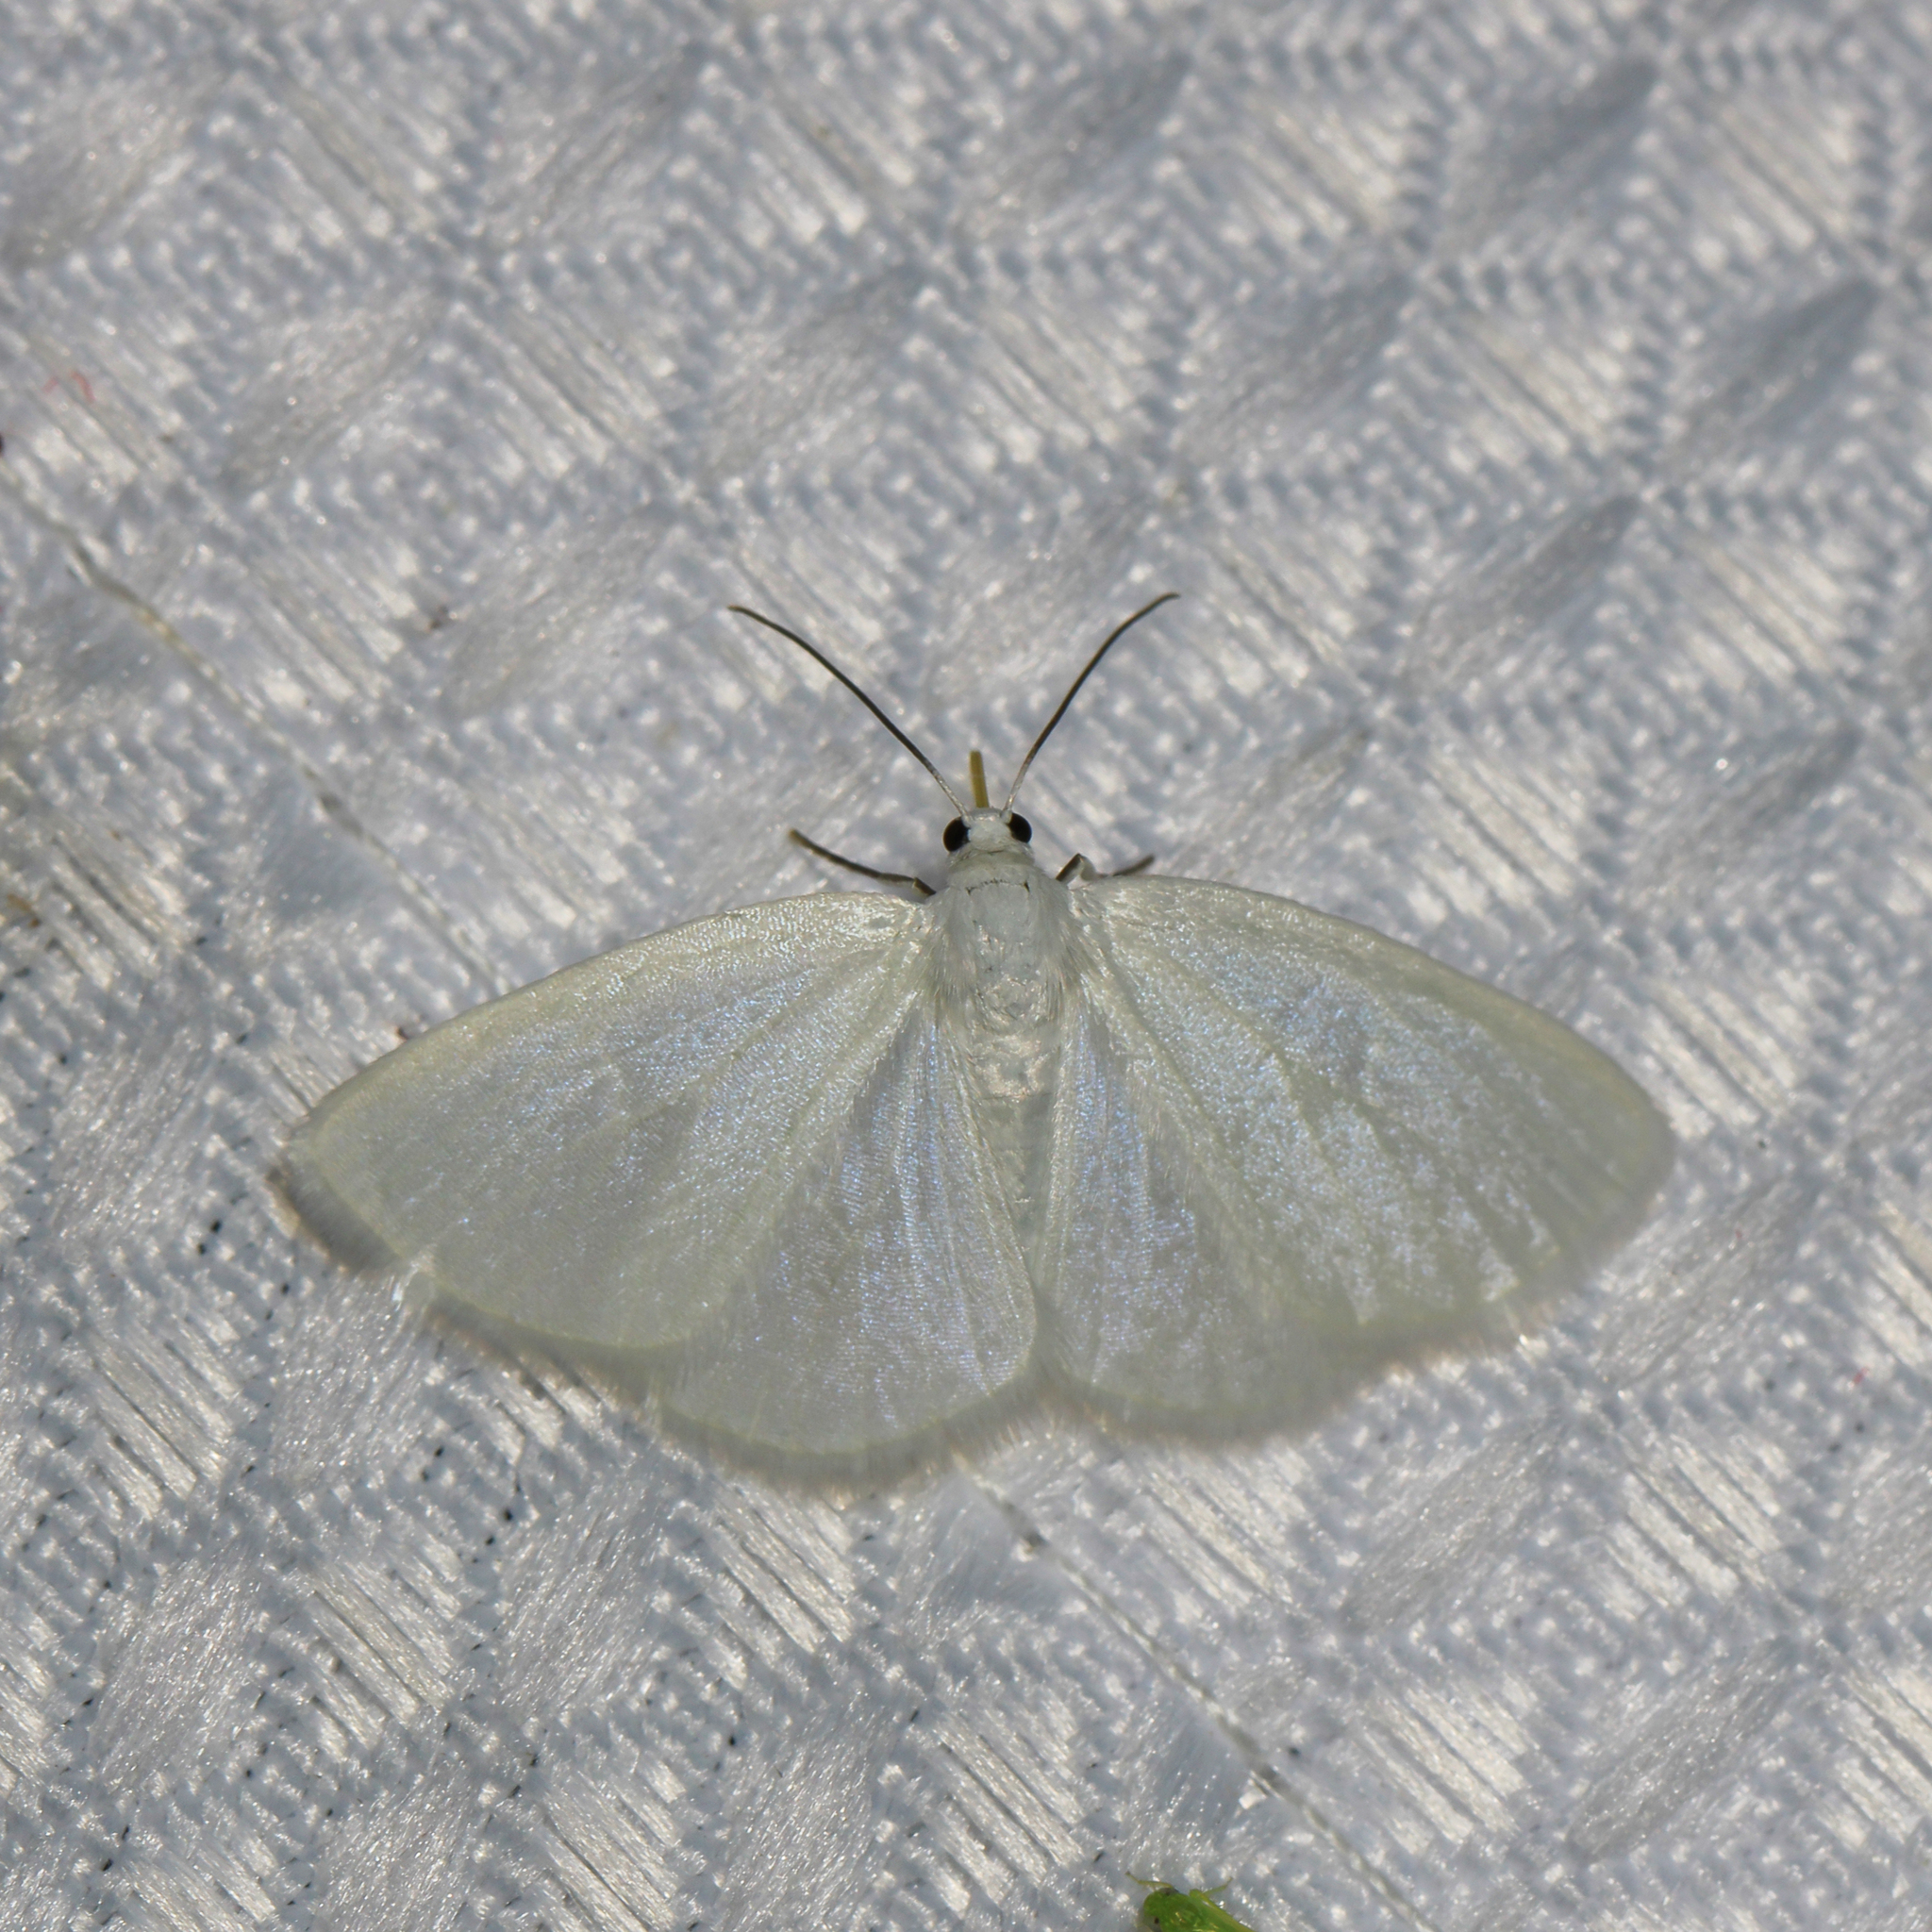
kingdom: Animalia
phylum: Arthropoda
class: Insecta
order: Lepidoptera
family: Geometridae
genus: Lomographa
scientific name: Lomographa vestaliata
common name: White spring moth
